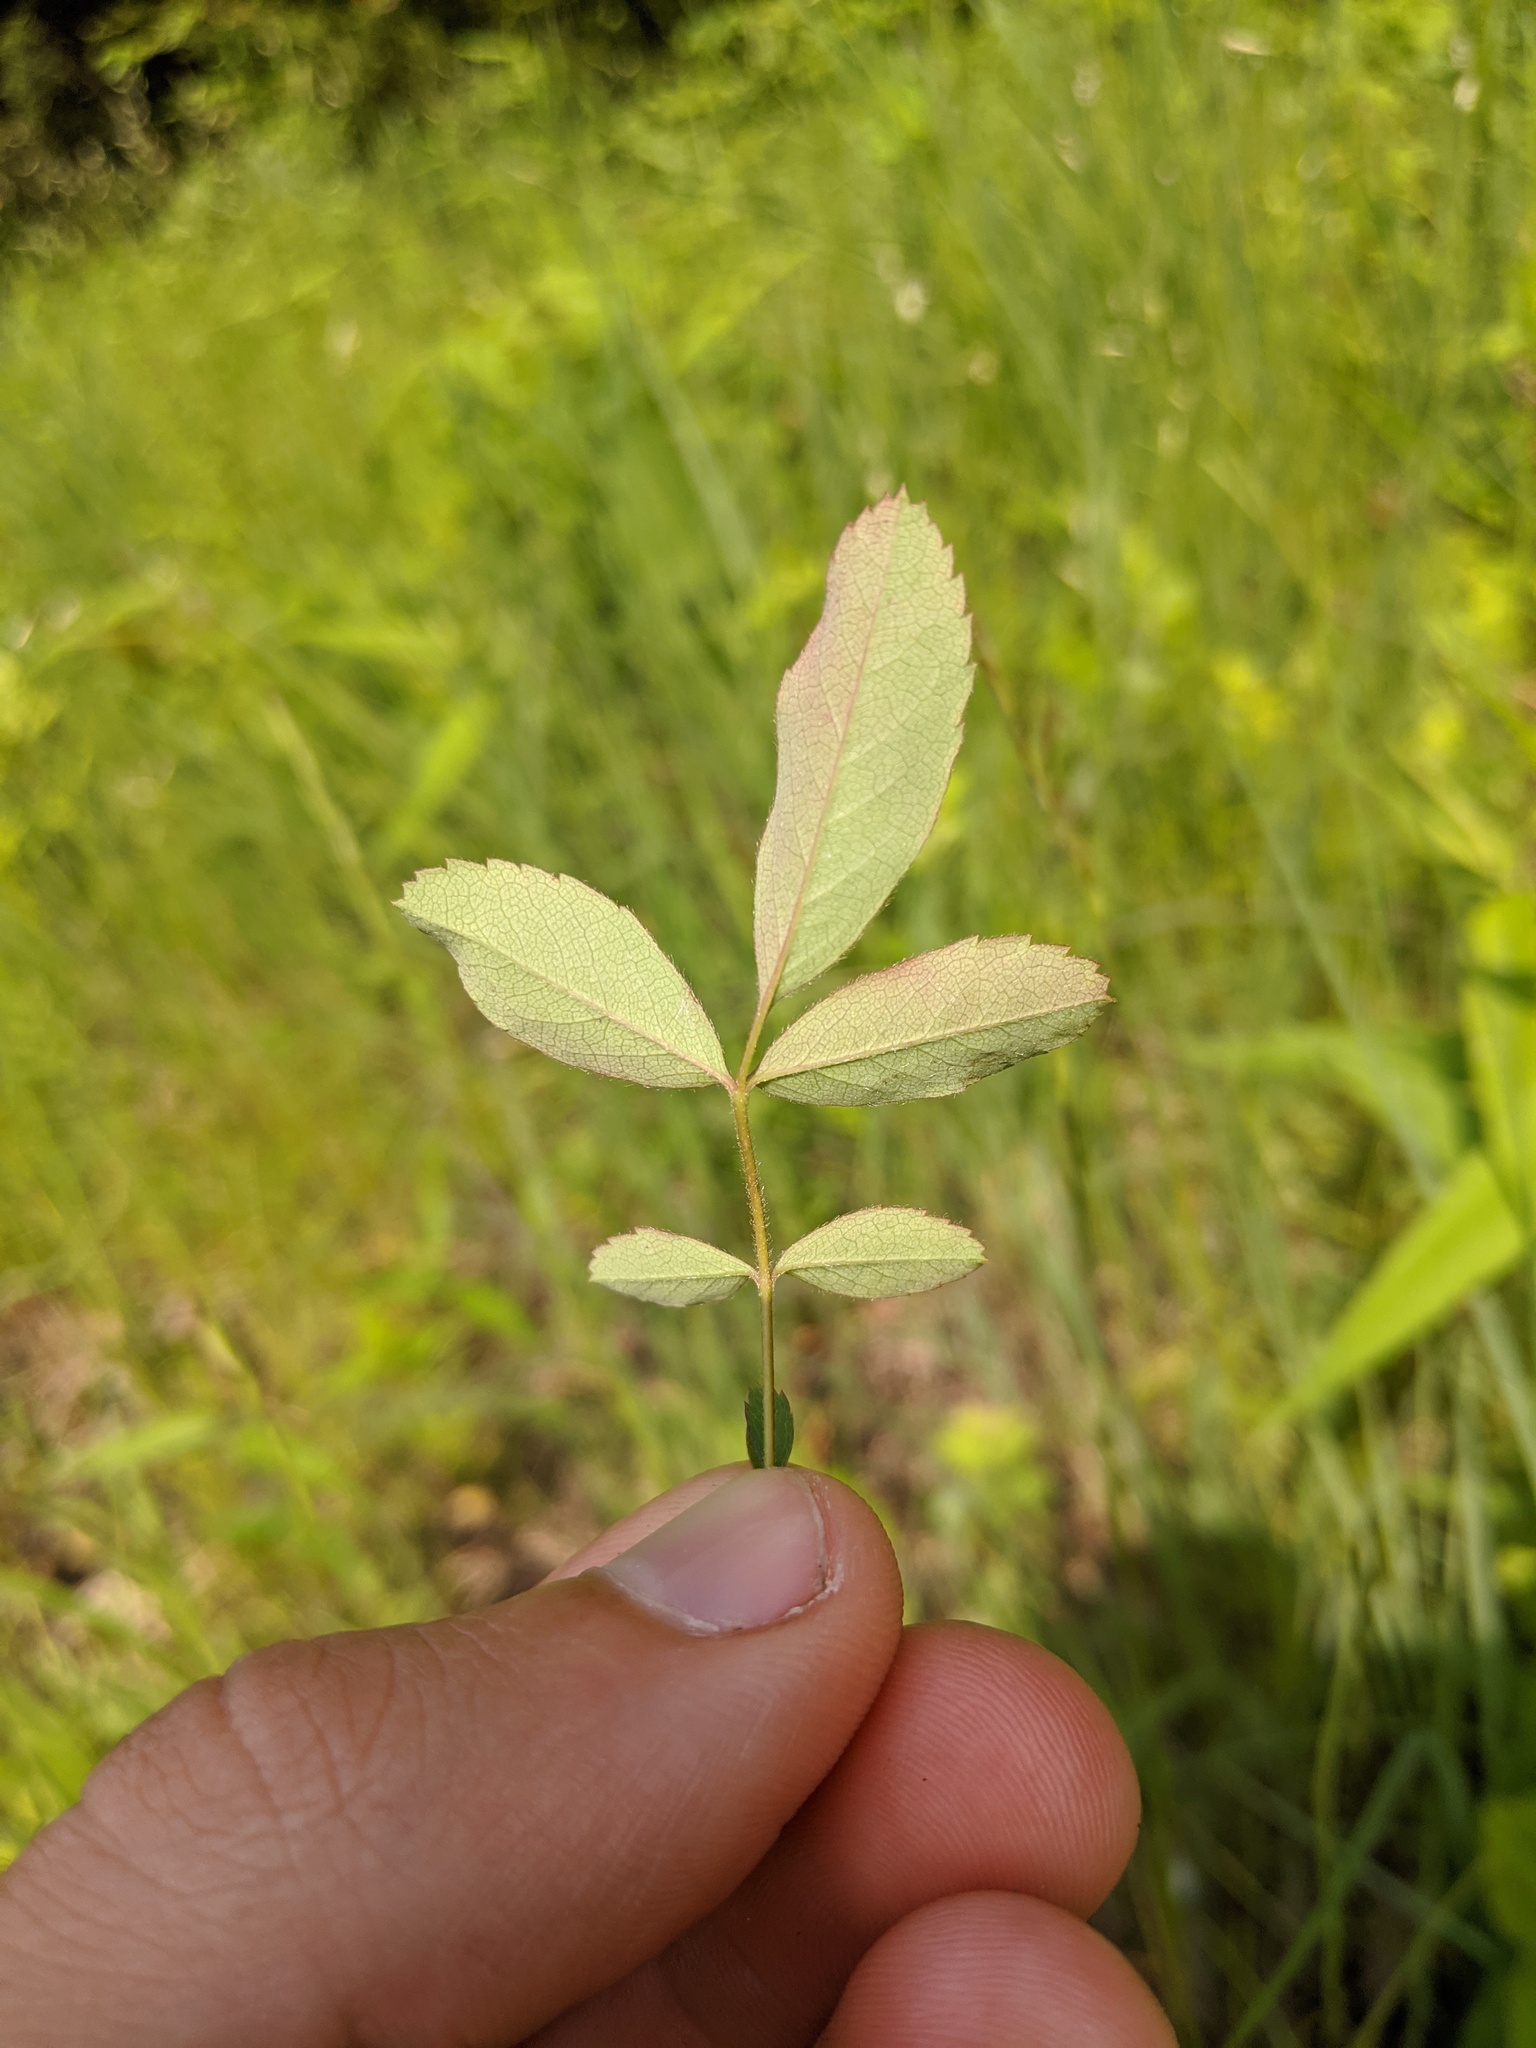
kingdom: Plantae
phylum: Tracheophyta
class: Magnoliopsida
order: Rosales
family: Rosaceae
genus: Rosa
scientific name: Rosa carolina
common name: Pasture rose
